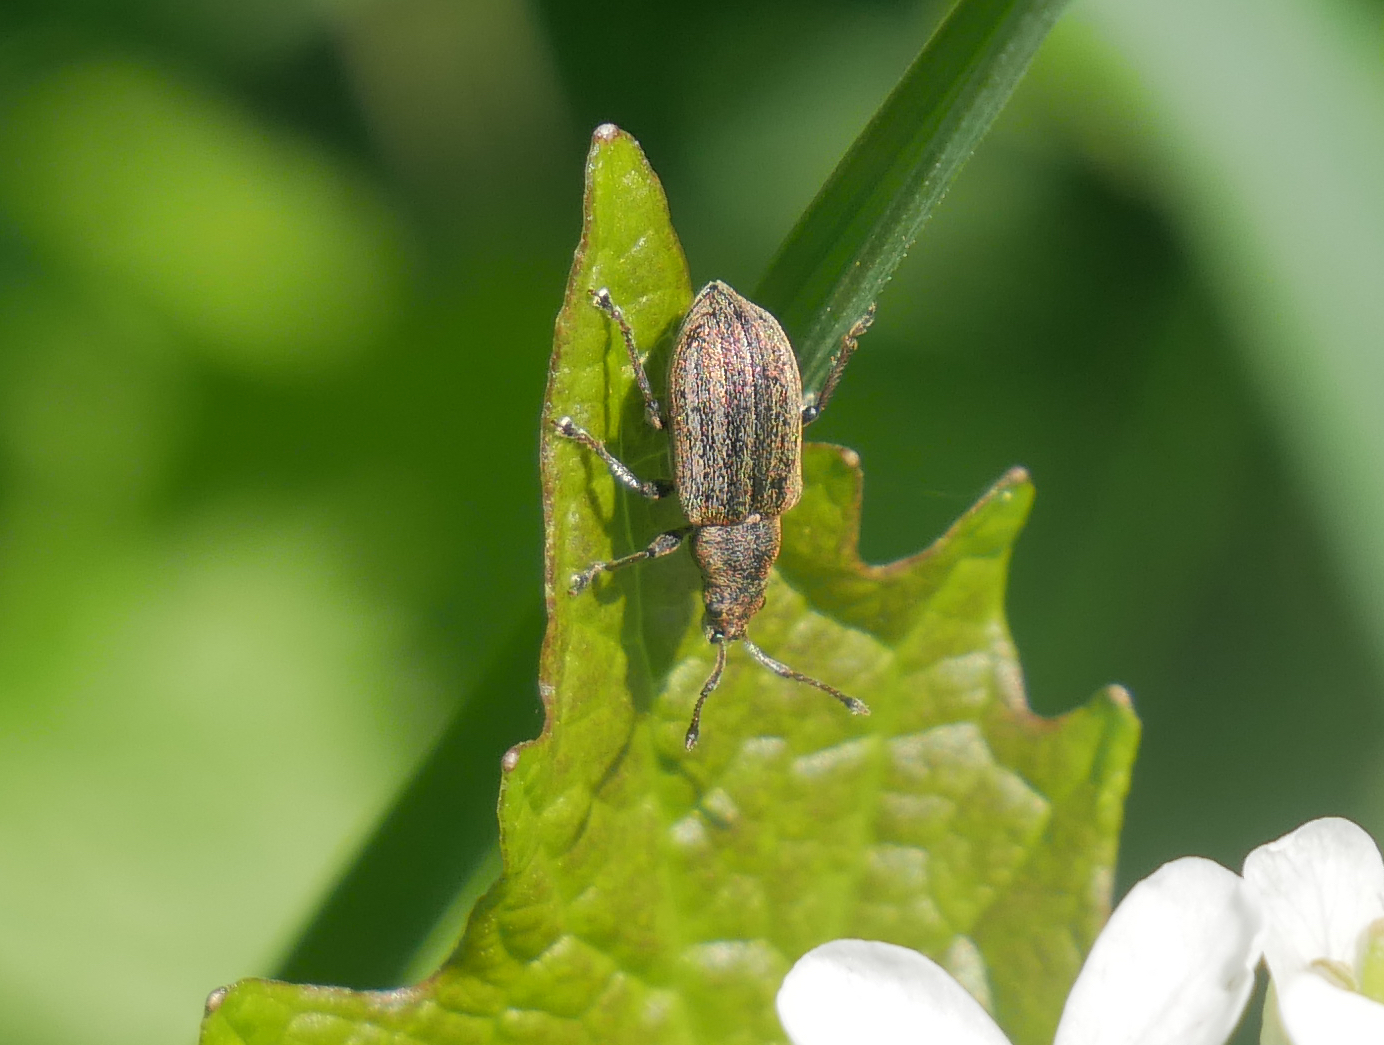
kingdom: Animalia
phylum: Arthropoda
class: Insecta
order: Coleoptera
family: Curculionidae
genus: Phyllobius
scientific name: Phyllobius pyri
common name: Common leaf weevil
